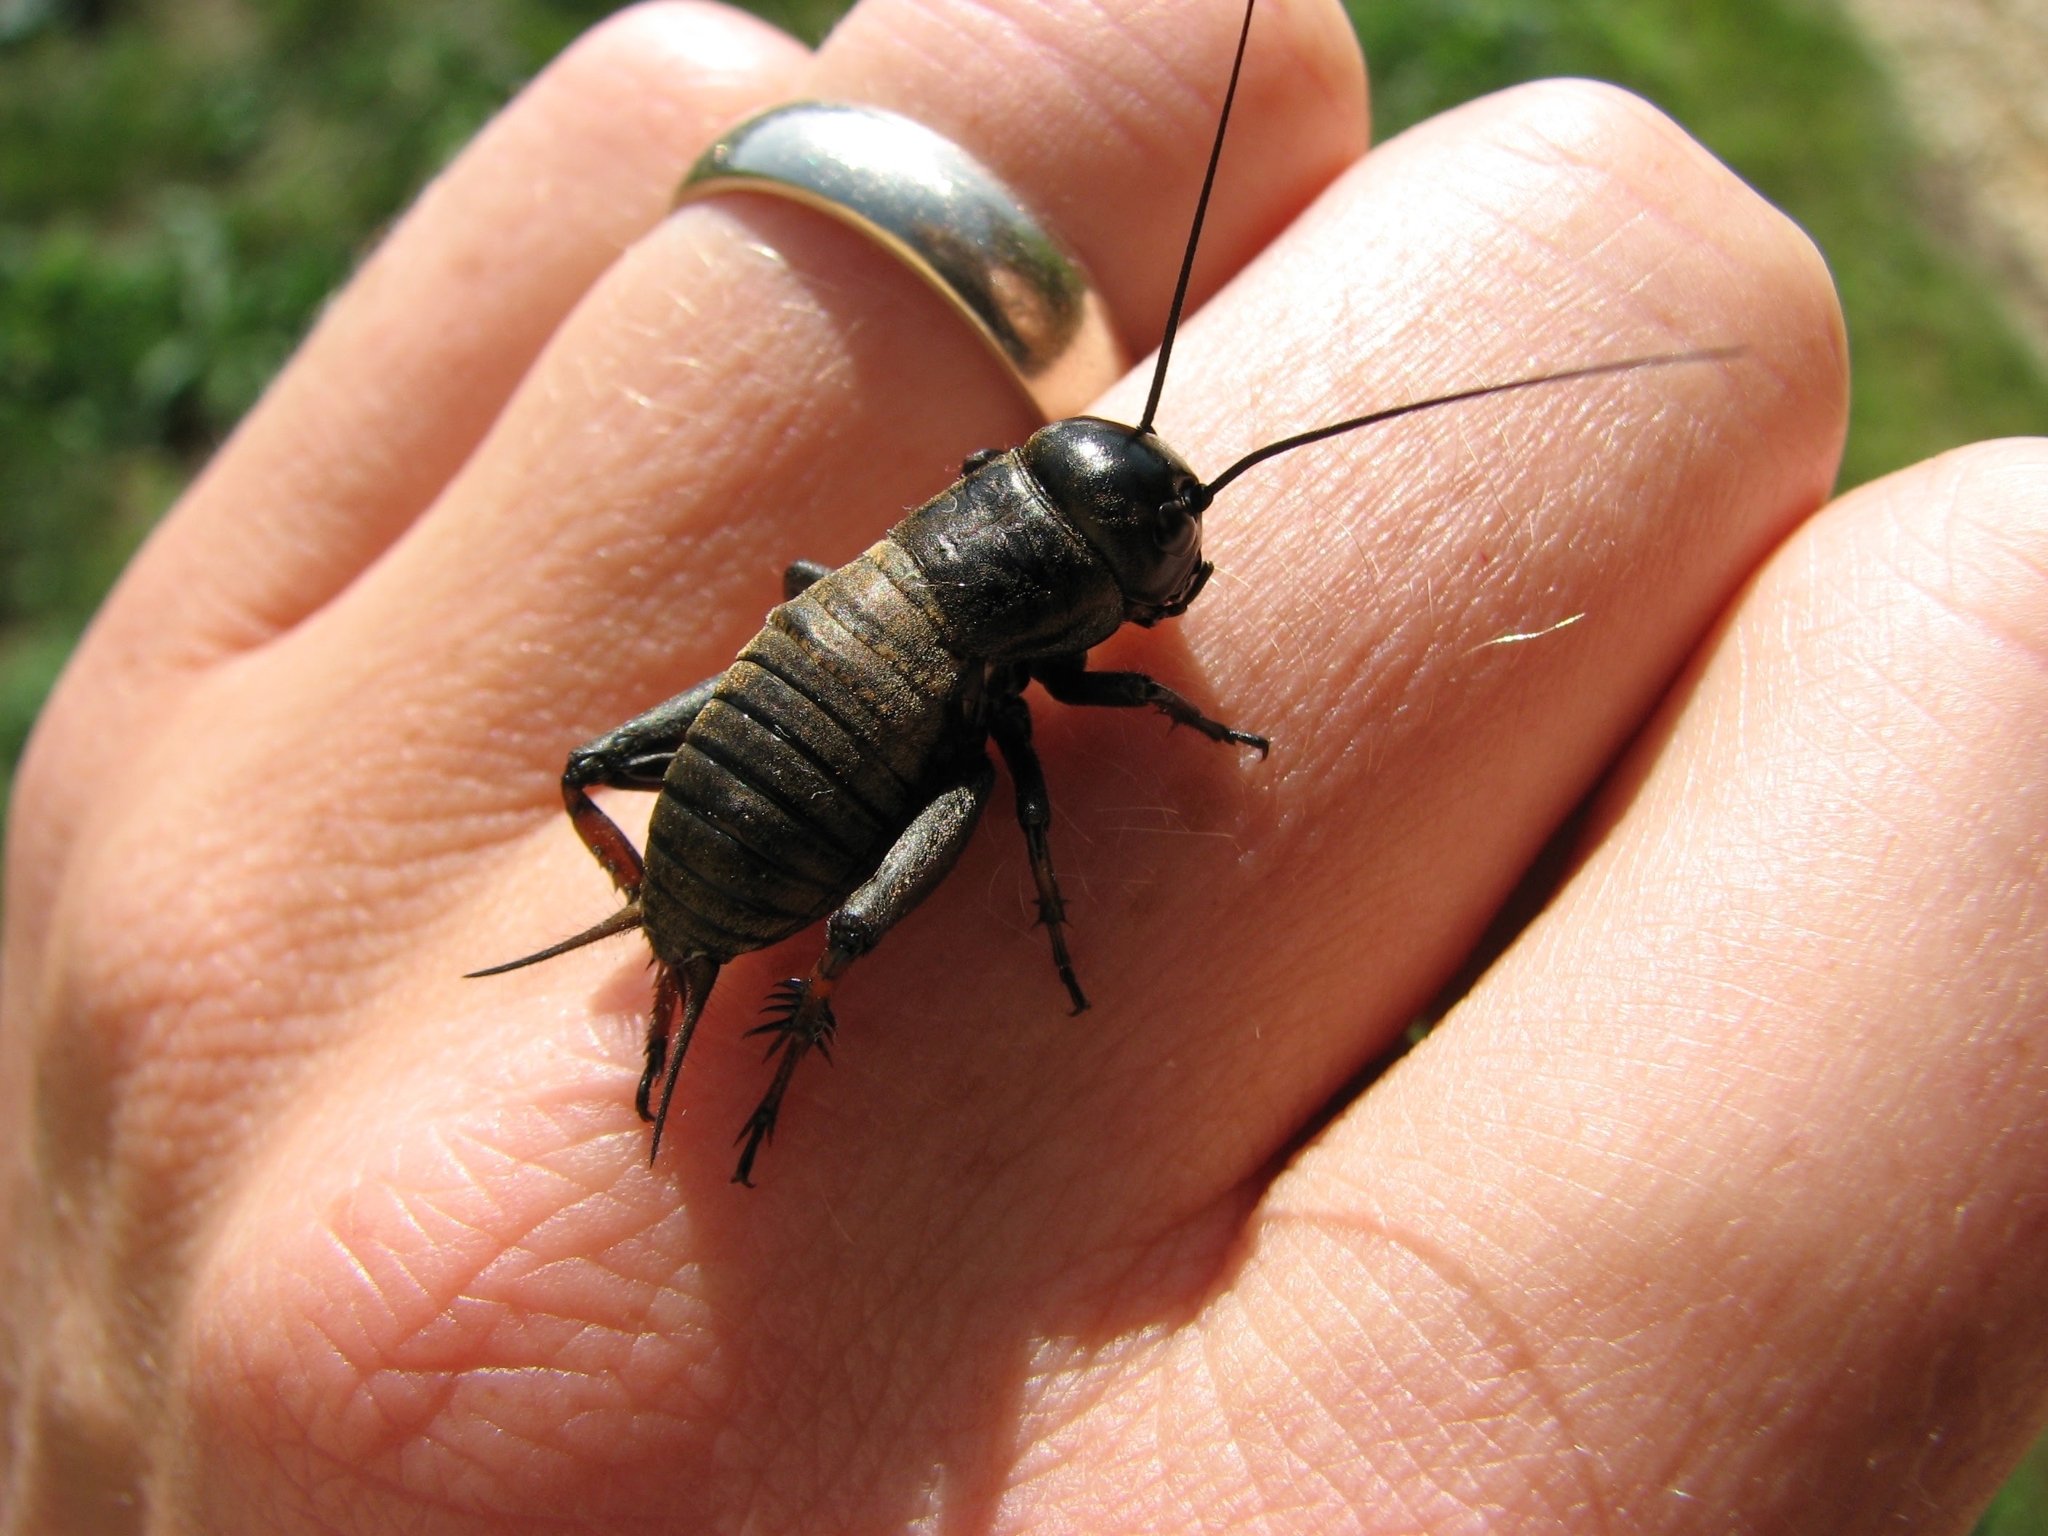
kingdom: Animalia
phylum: Arthropoda
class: Insecta
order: Orthoptera
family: Gryllidae
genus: Gryllus
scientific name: Gryllus campestris
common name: Field cricket
